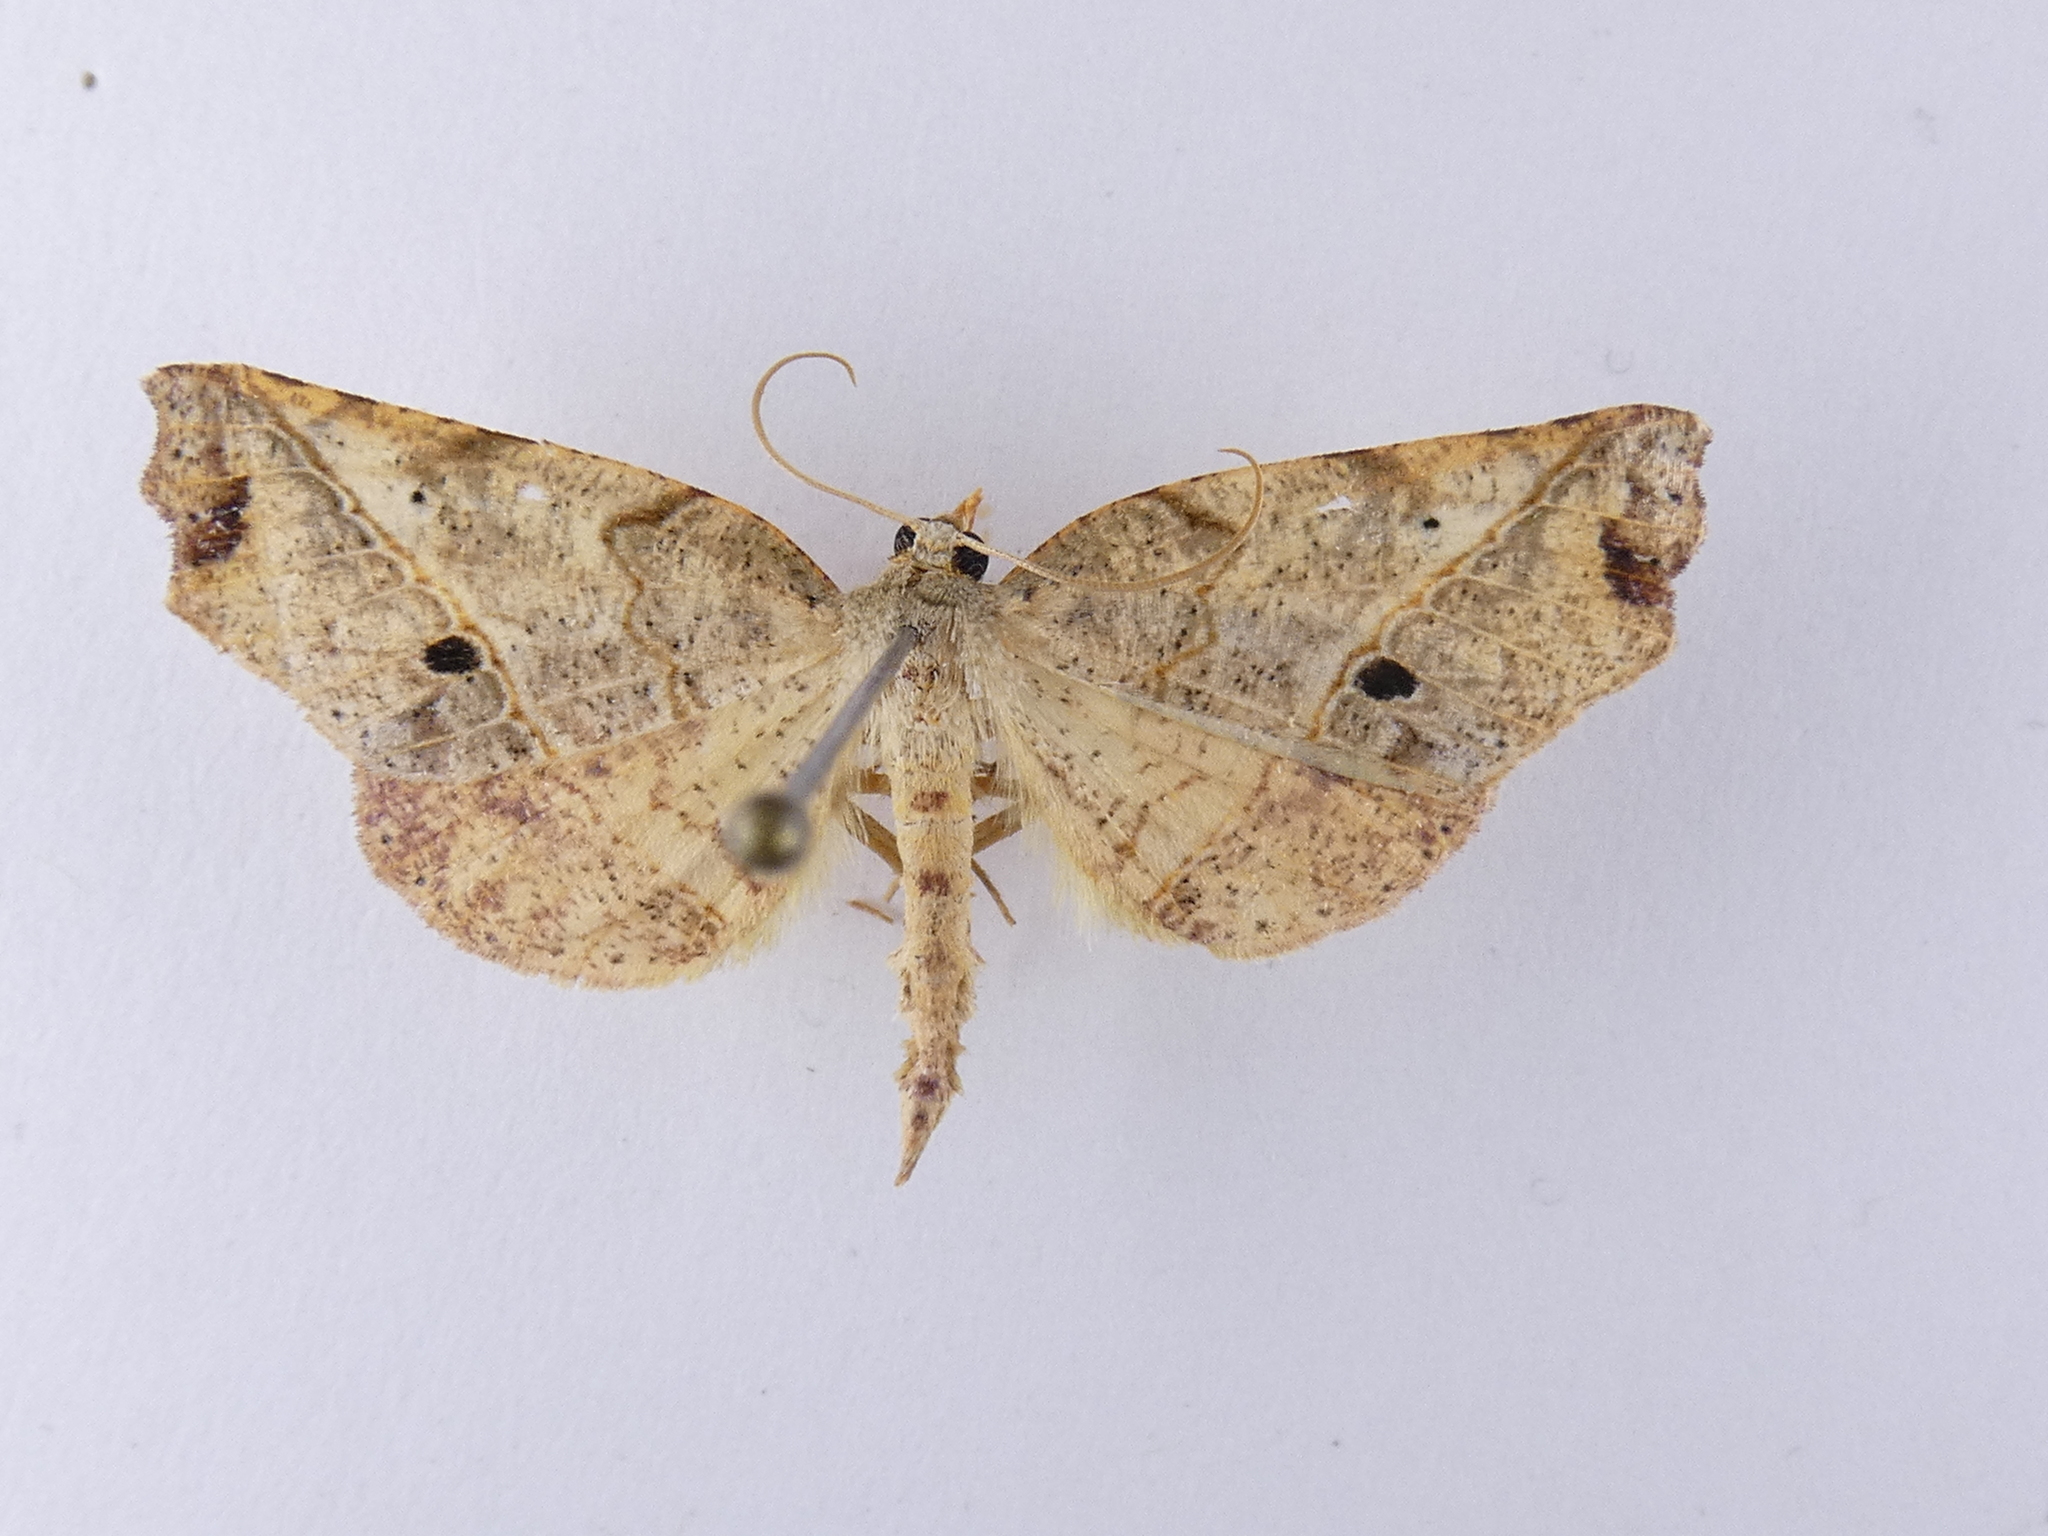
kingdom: Animalia
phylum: Arthropoda
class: Insecta
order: Lepidoptera
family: Geometridae
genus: Ischalis
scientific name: Ischalis gallaria
